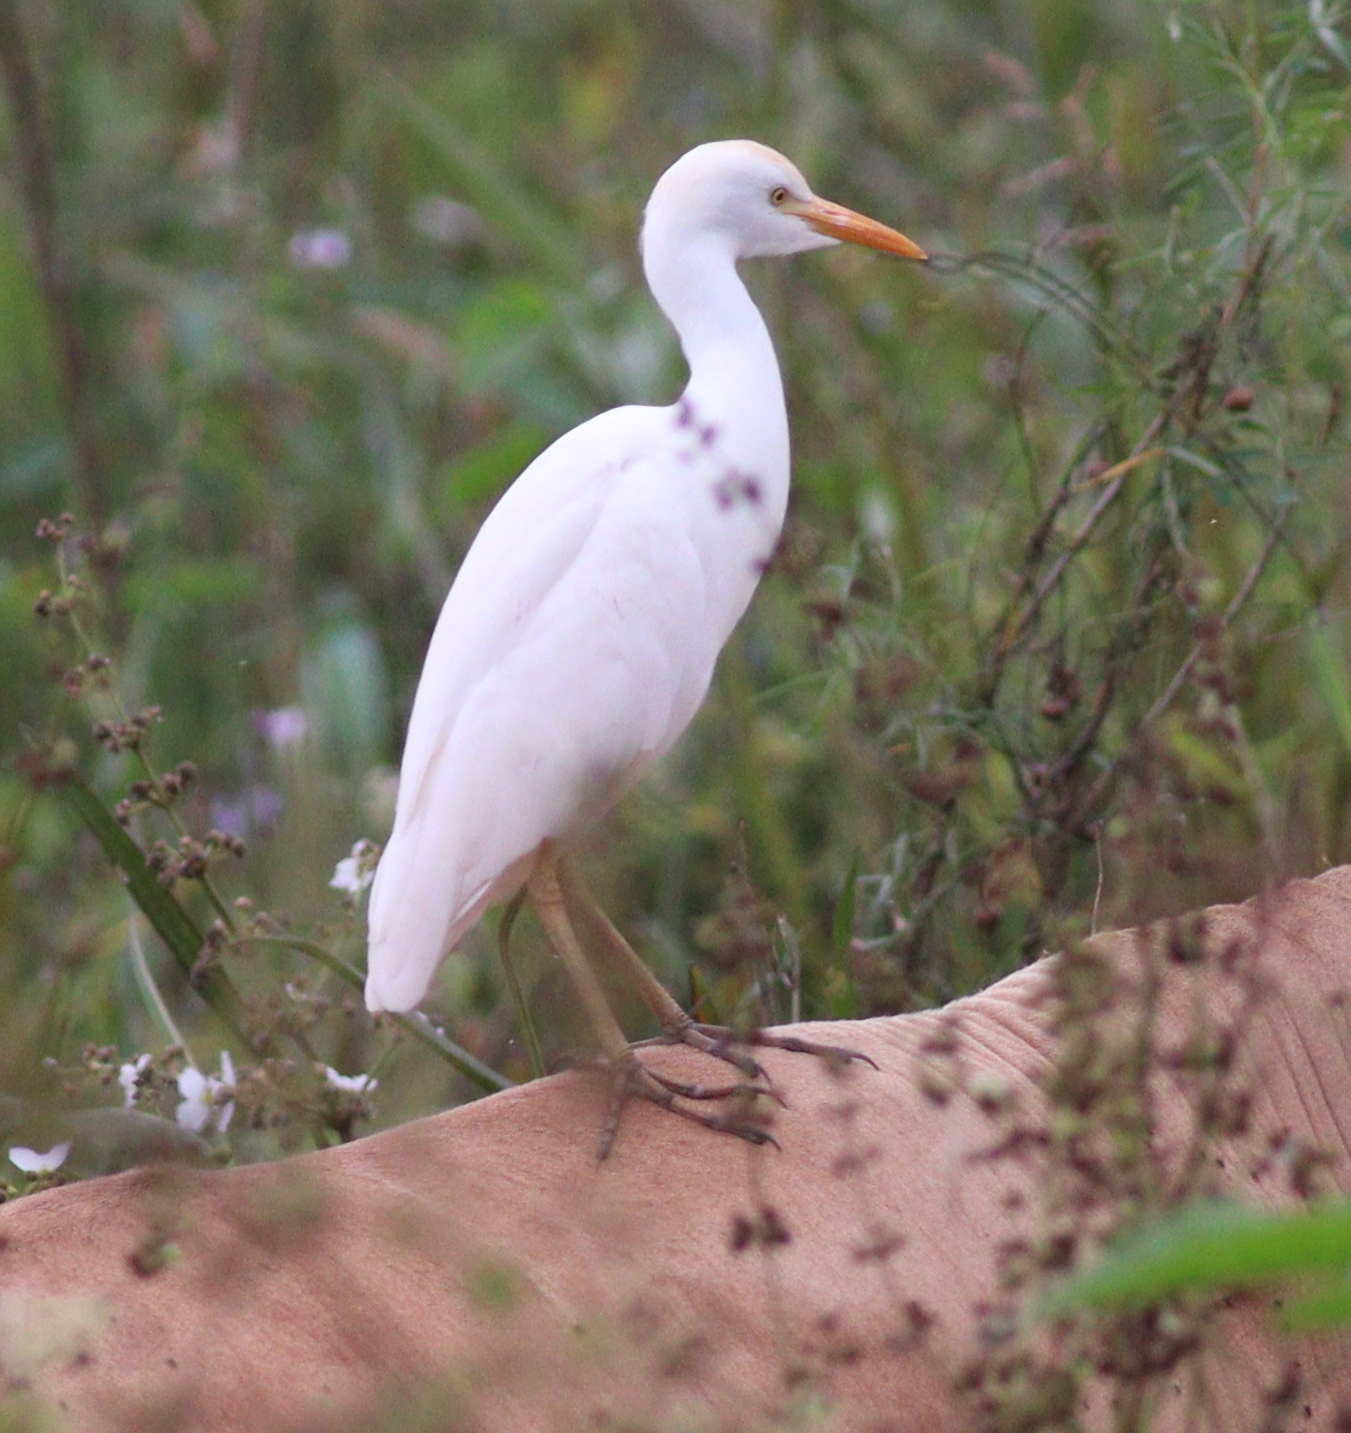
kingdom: Animalia
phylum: Chordata
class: Aves
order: Pelecaniformes
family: Ardeidae
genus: Bubulcus
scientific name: Bubulcus ibis
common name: Cattle egret
